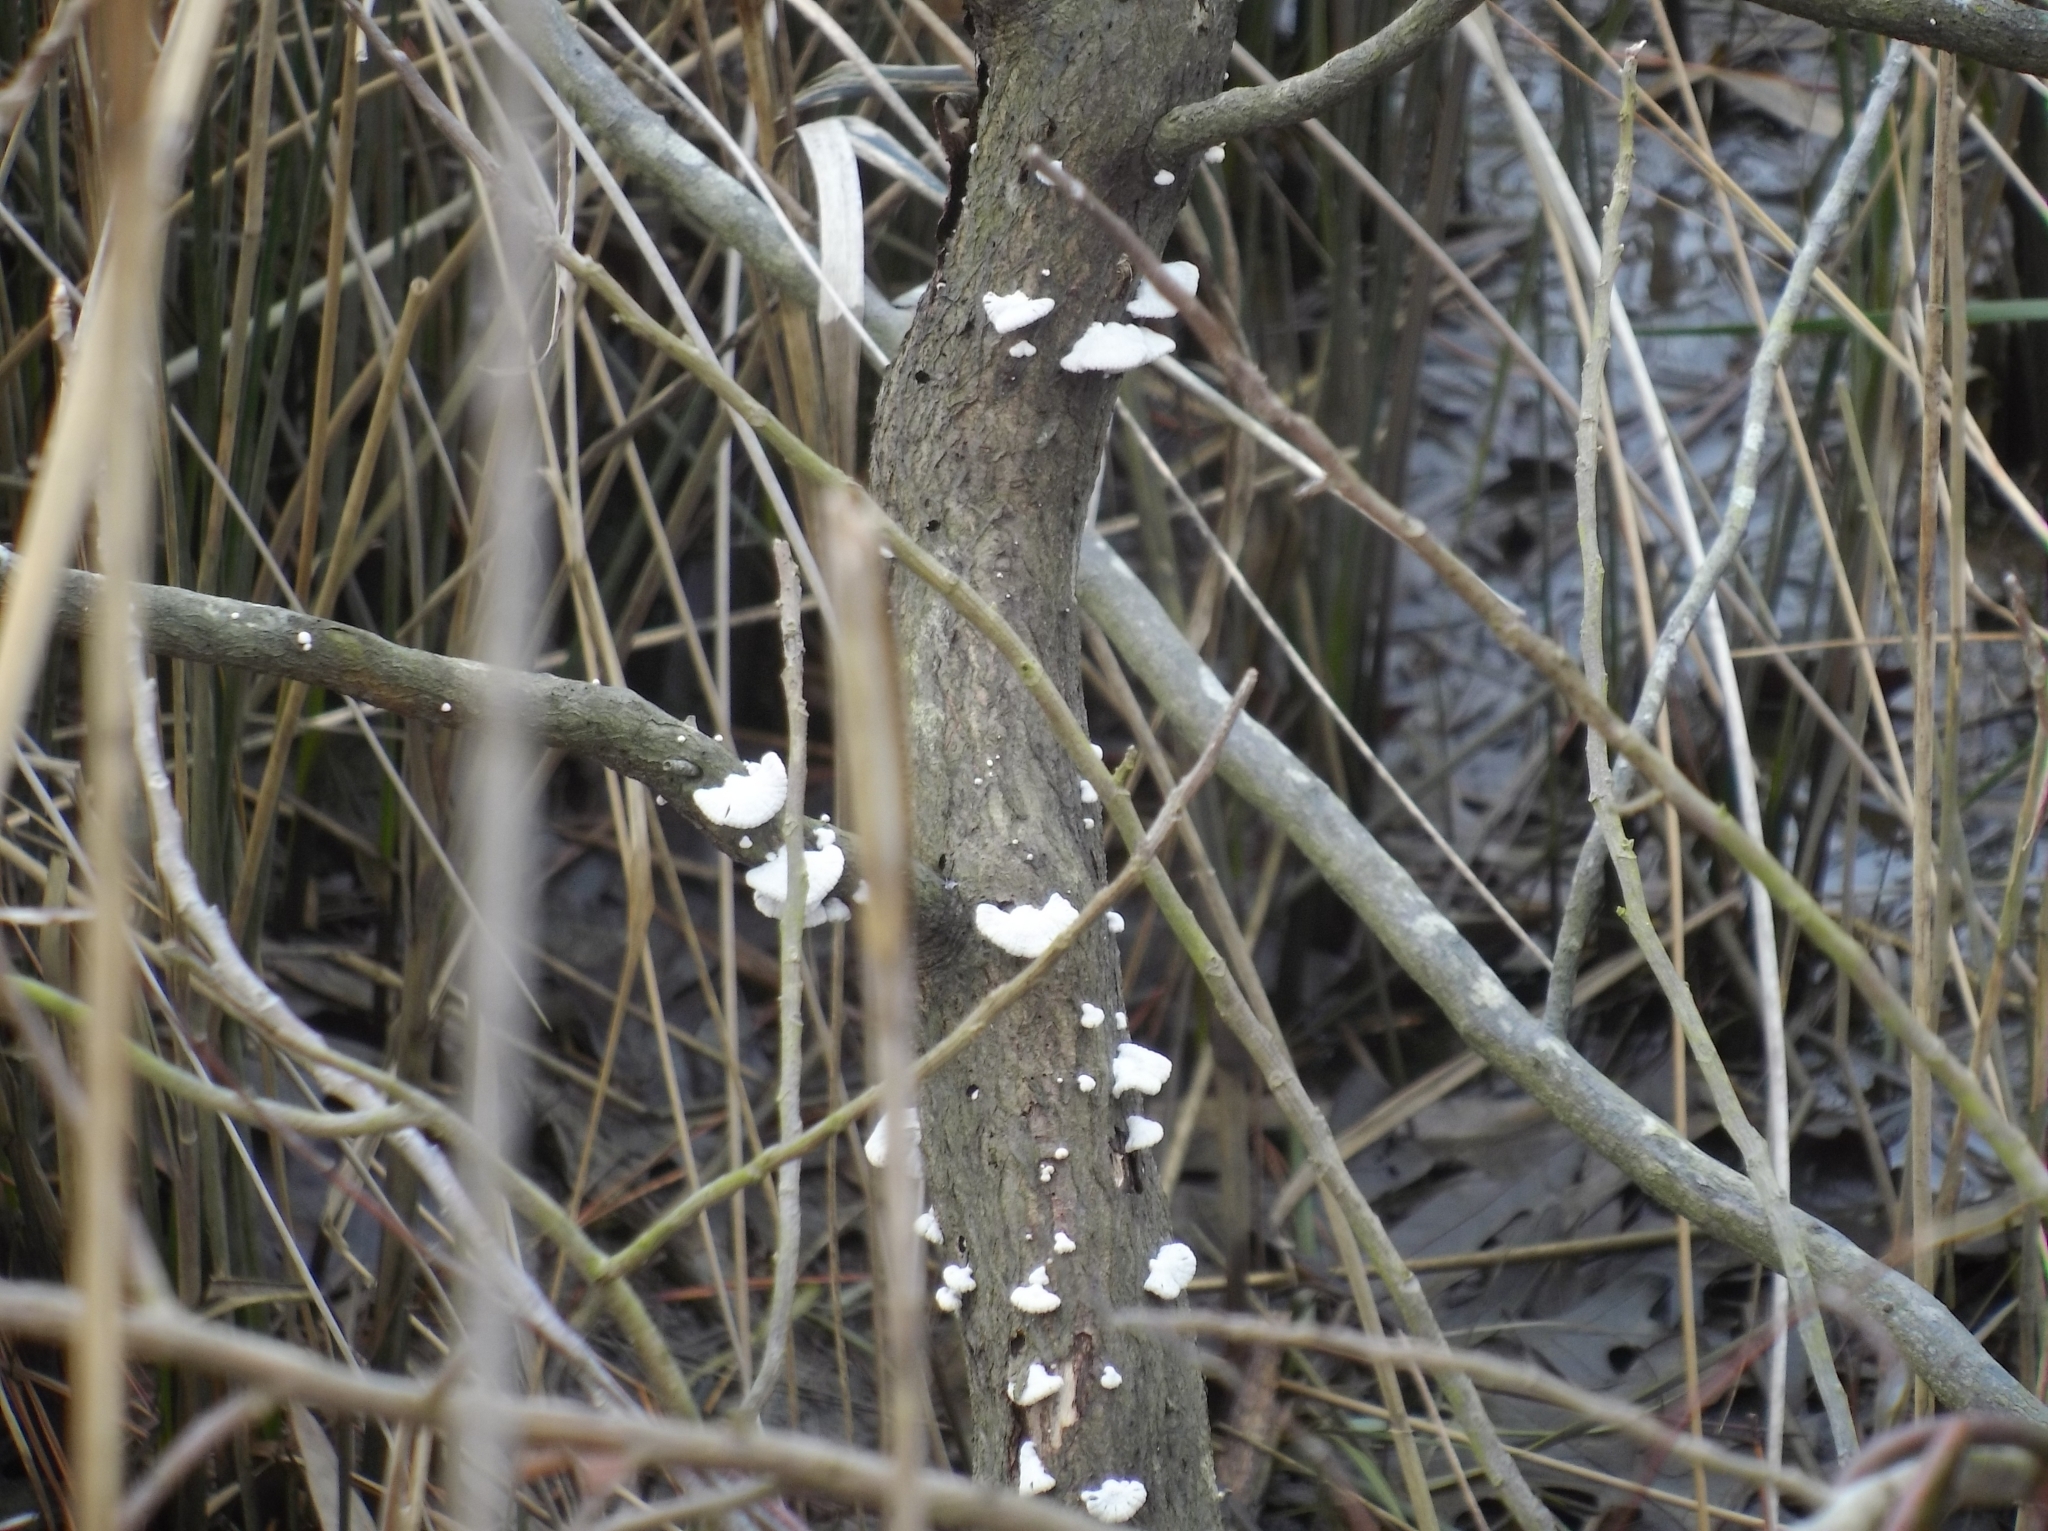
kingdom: Fungi
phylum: Basidiomycota
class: Agaricomycetes
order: Agaricales
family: Schizophyllaceae
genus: Schizophyllum
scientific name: Schizophyllum commune
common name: Common porecrust
